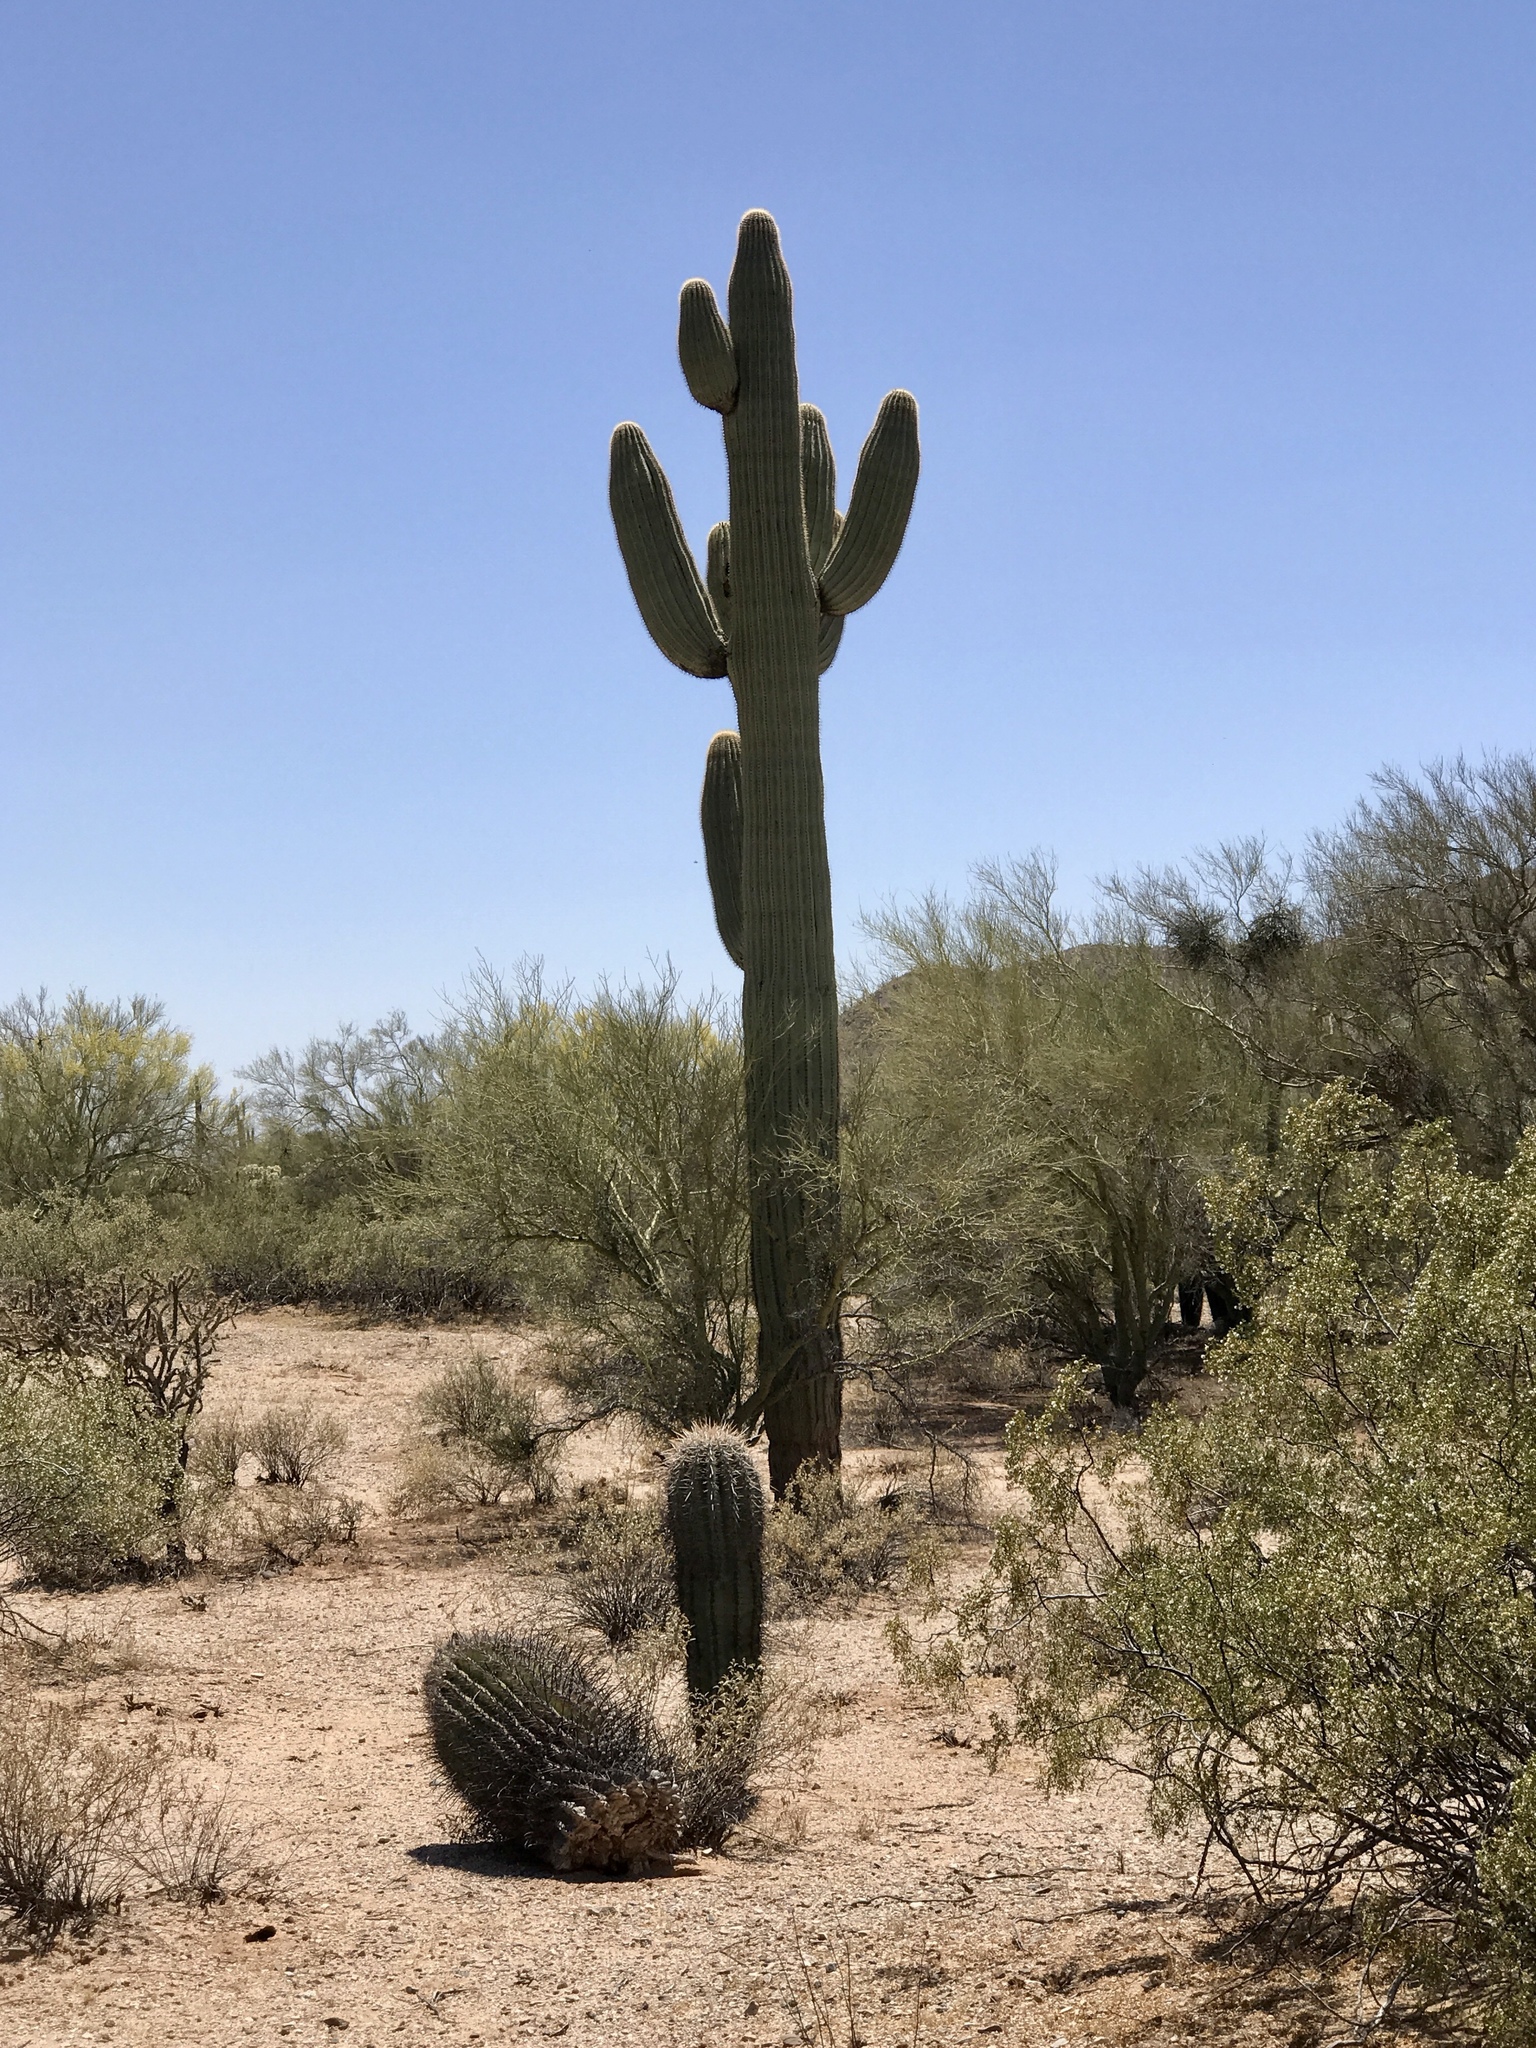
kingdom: Plantae
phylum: Tracheophyta
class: Magnoliopsida
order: Caryophyllales
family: Cactaceae
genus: Carnegiea
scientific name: Carnegiea gigantea
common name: Saguaro
